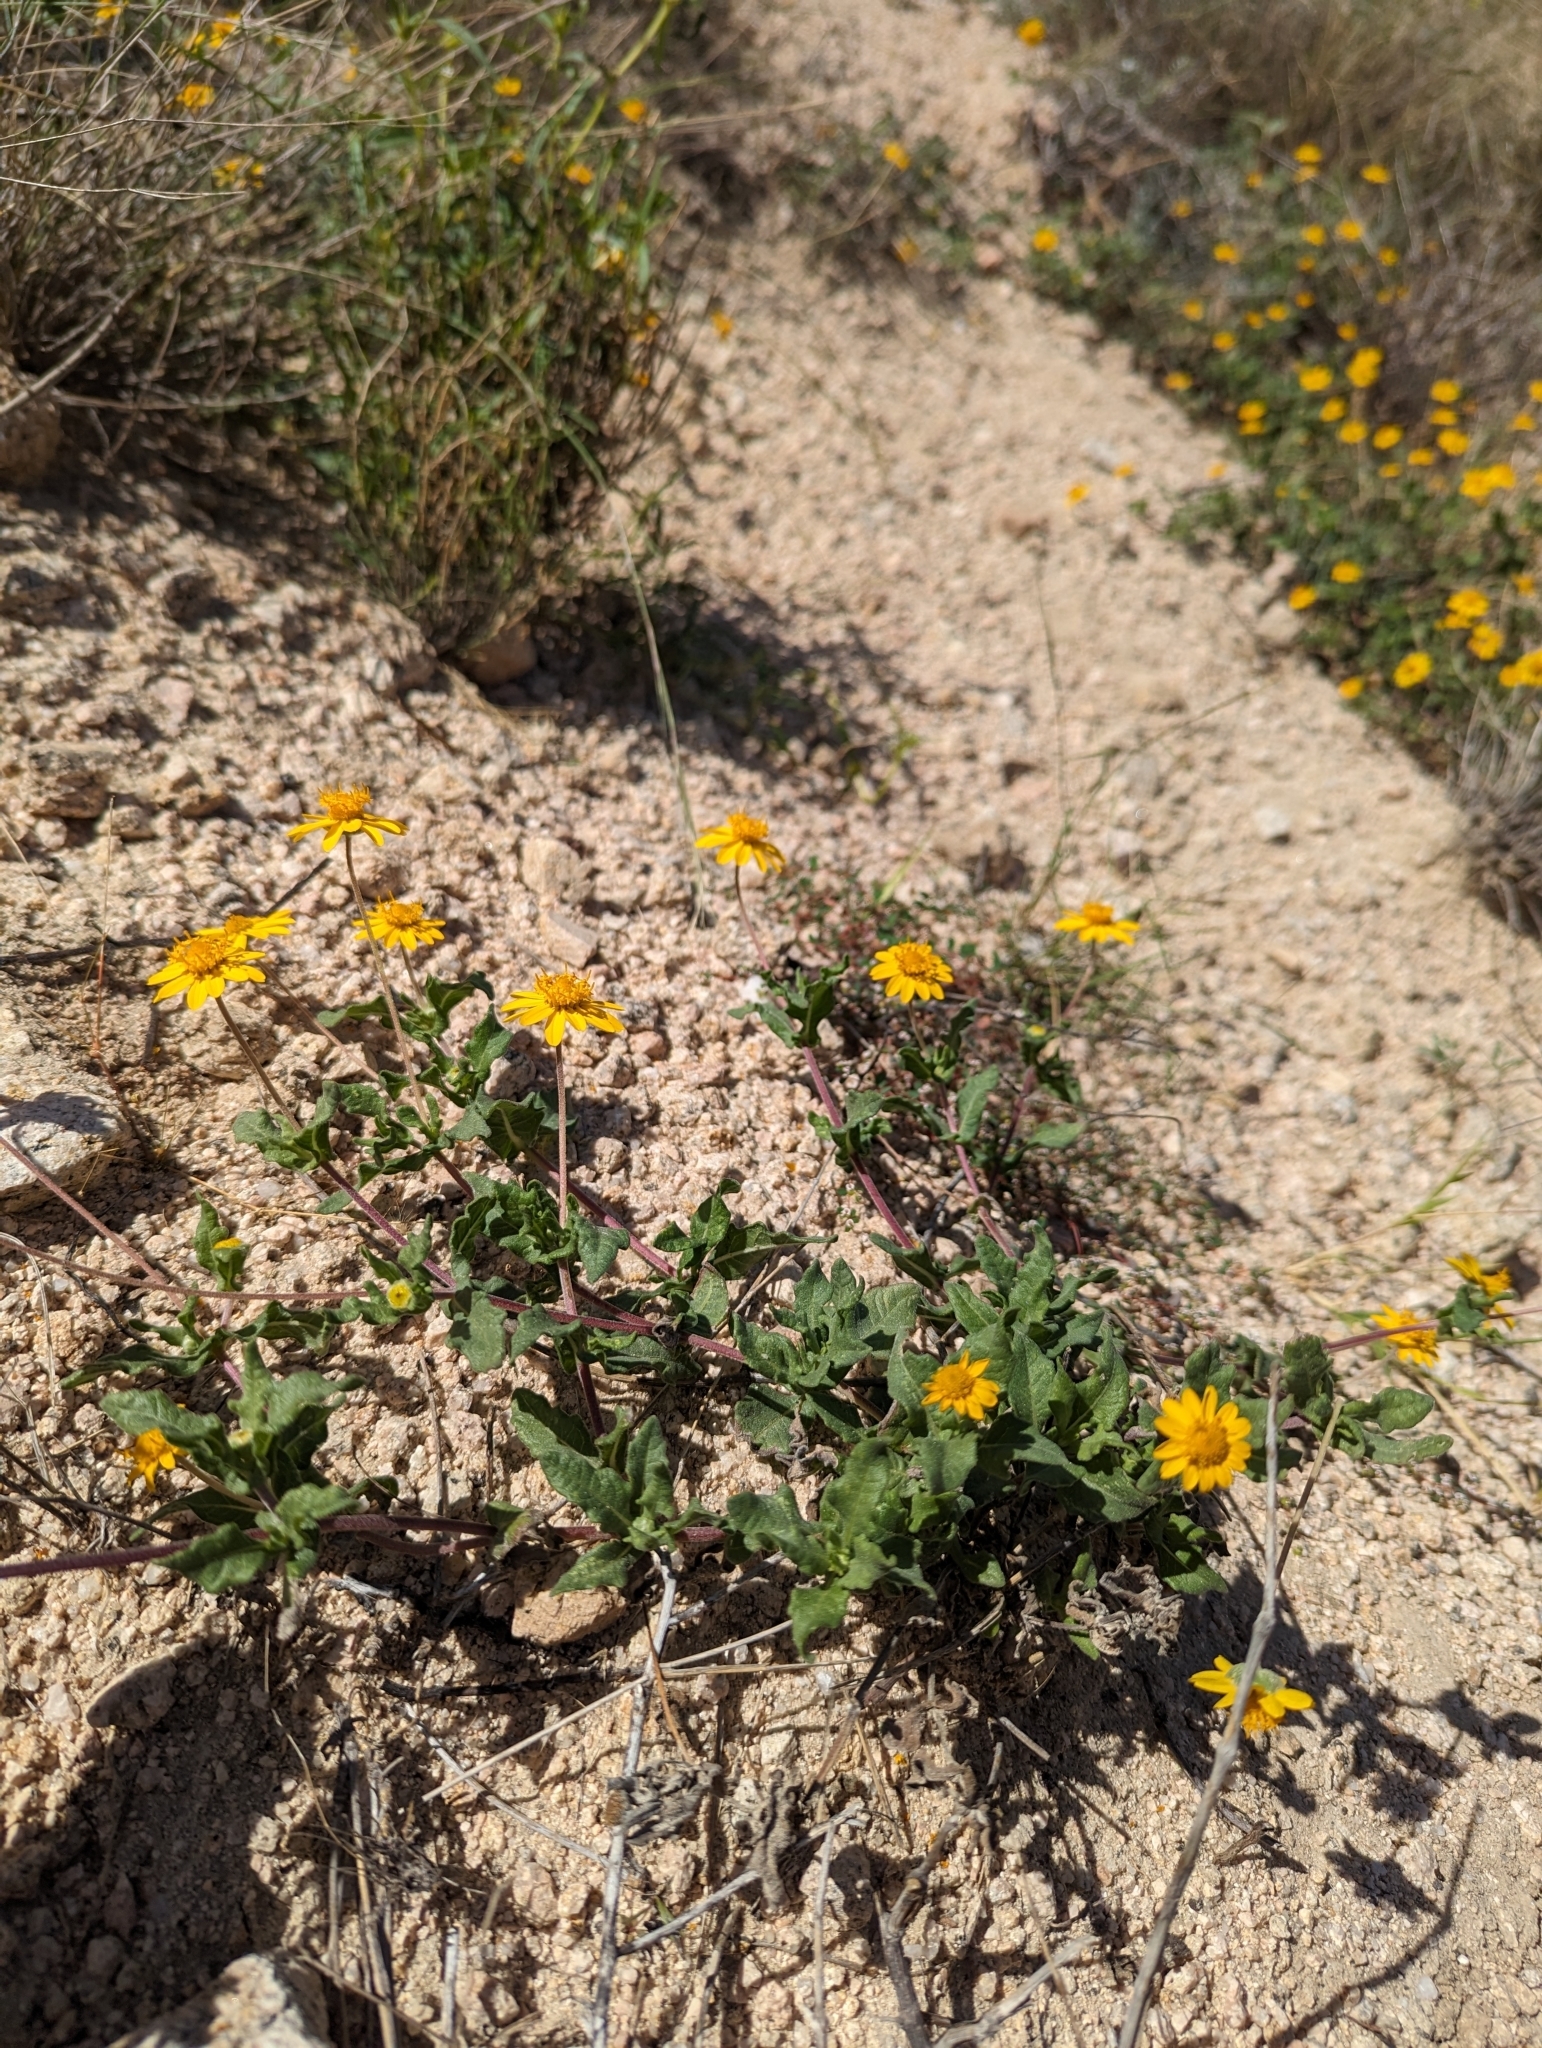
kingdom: Plantae
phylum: Tracheophyta
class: Magnoliopsida
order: Asterales
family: Asteraceae
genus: Melampodium
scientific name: Melampodium sinuatum
